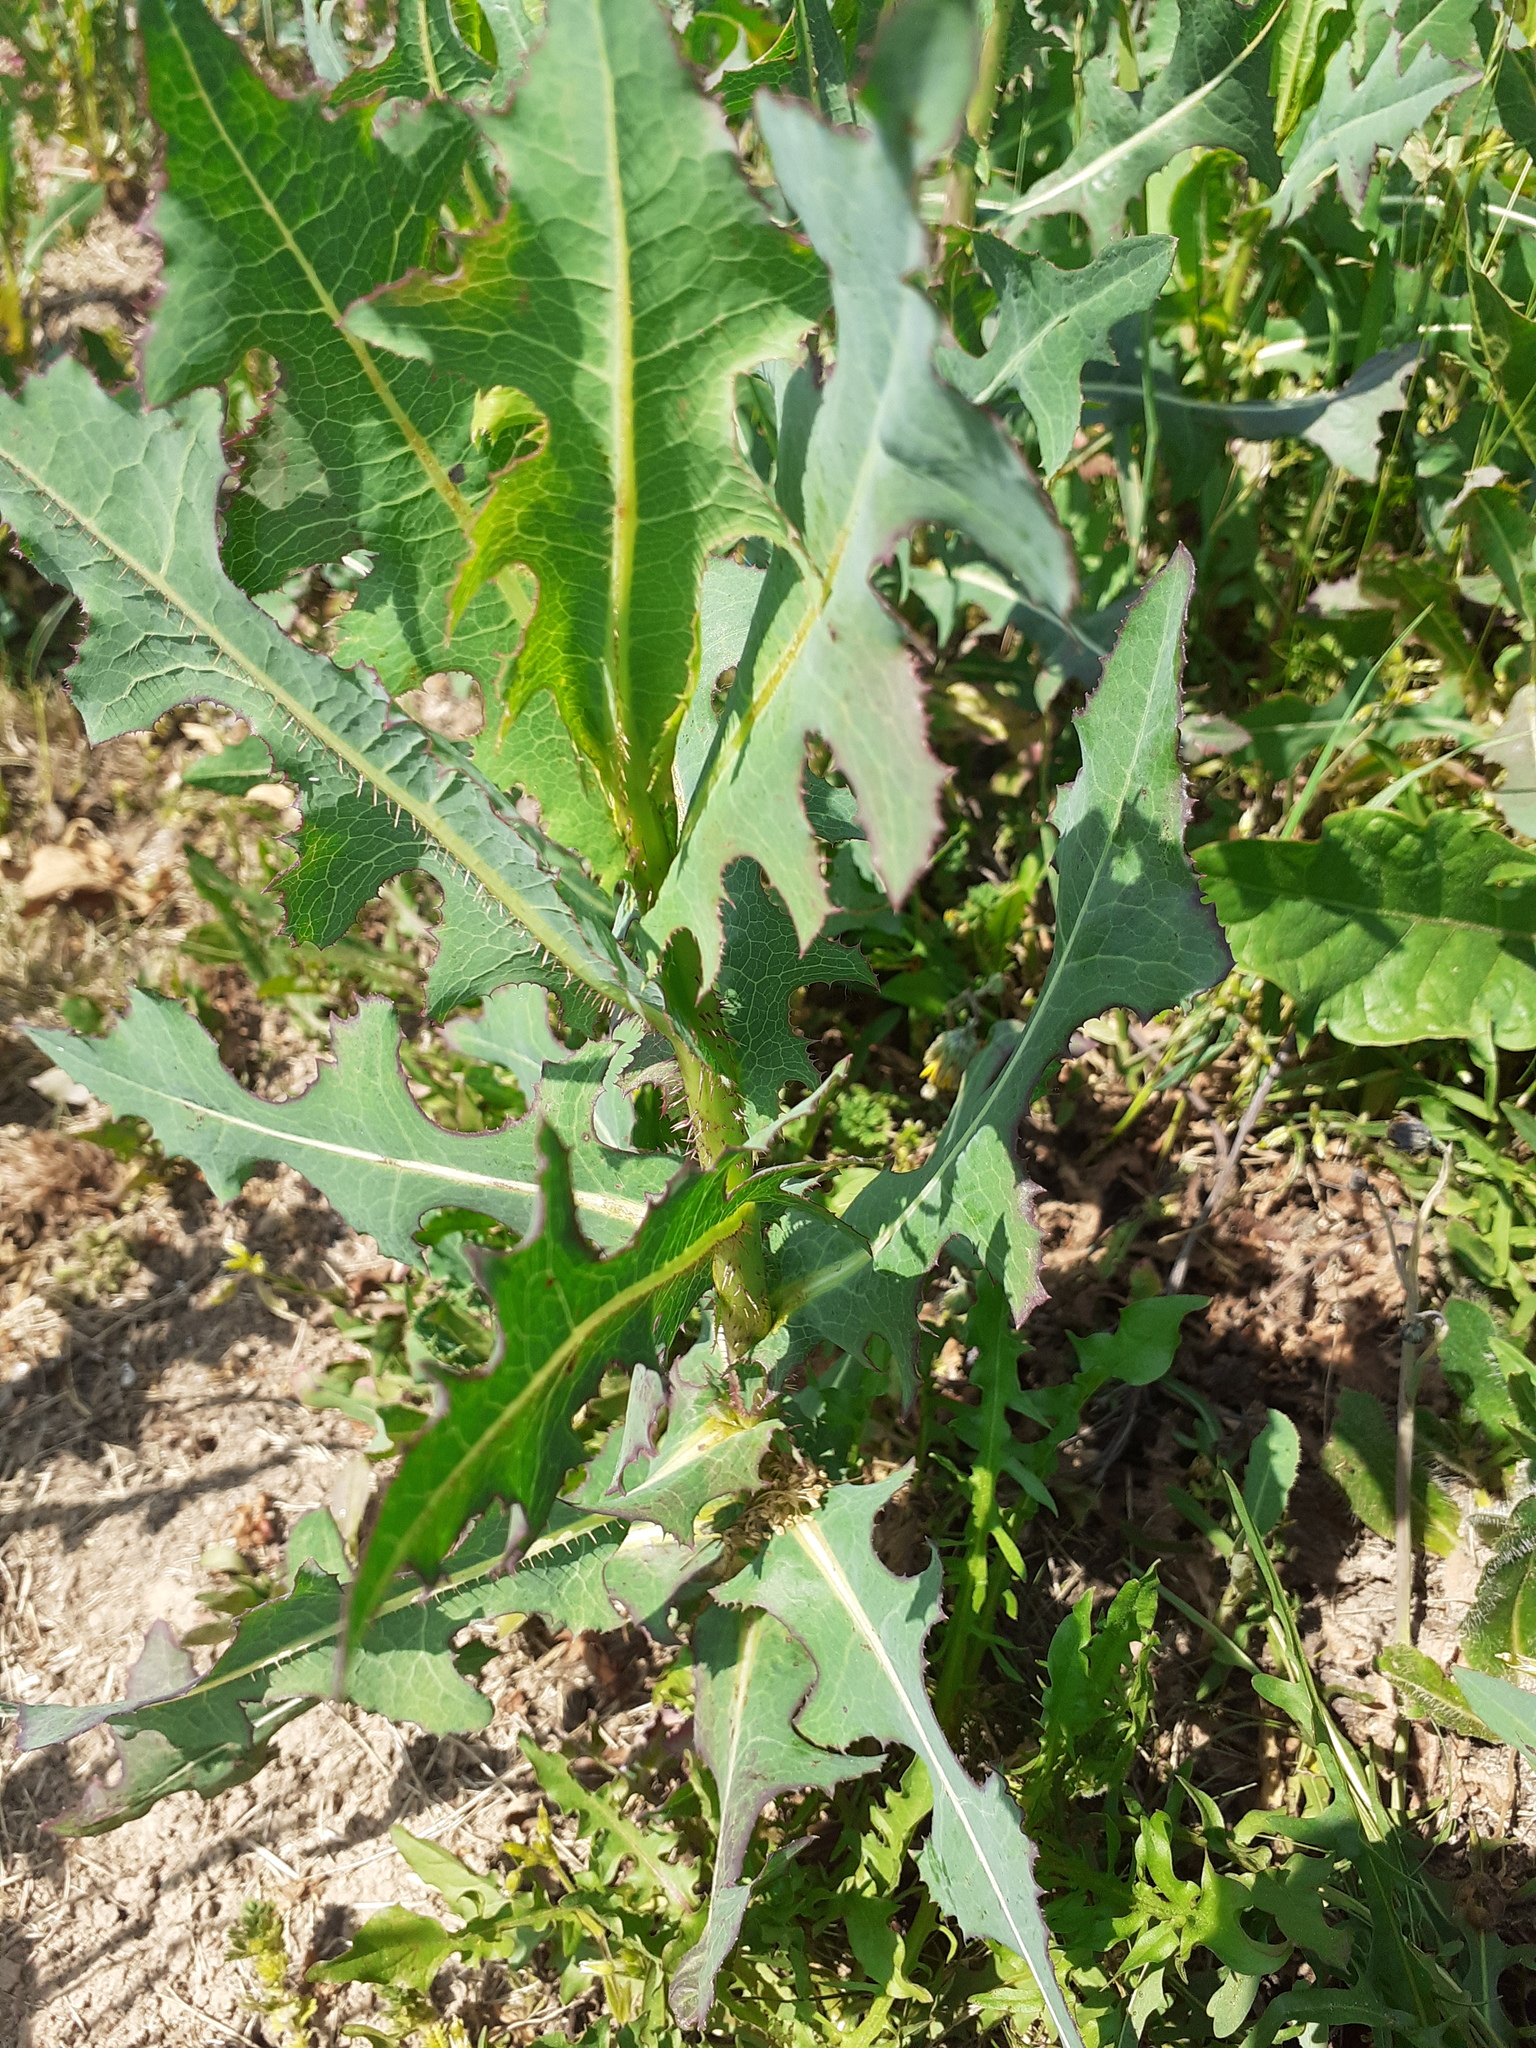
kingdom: Plantae
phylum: Tracheophyta
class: Magnoliopsida
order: Asterales
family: Asteraceae
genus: Lactuca
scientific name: Lactuca serriola
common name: Prickly lettuce
